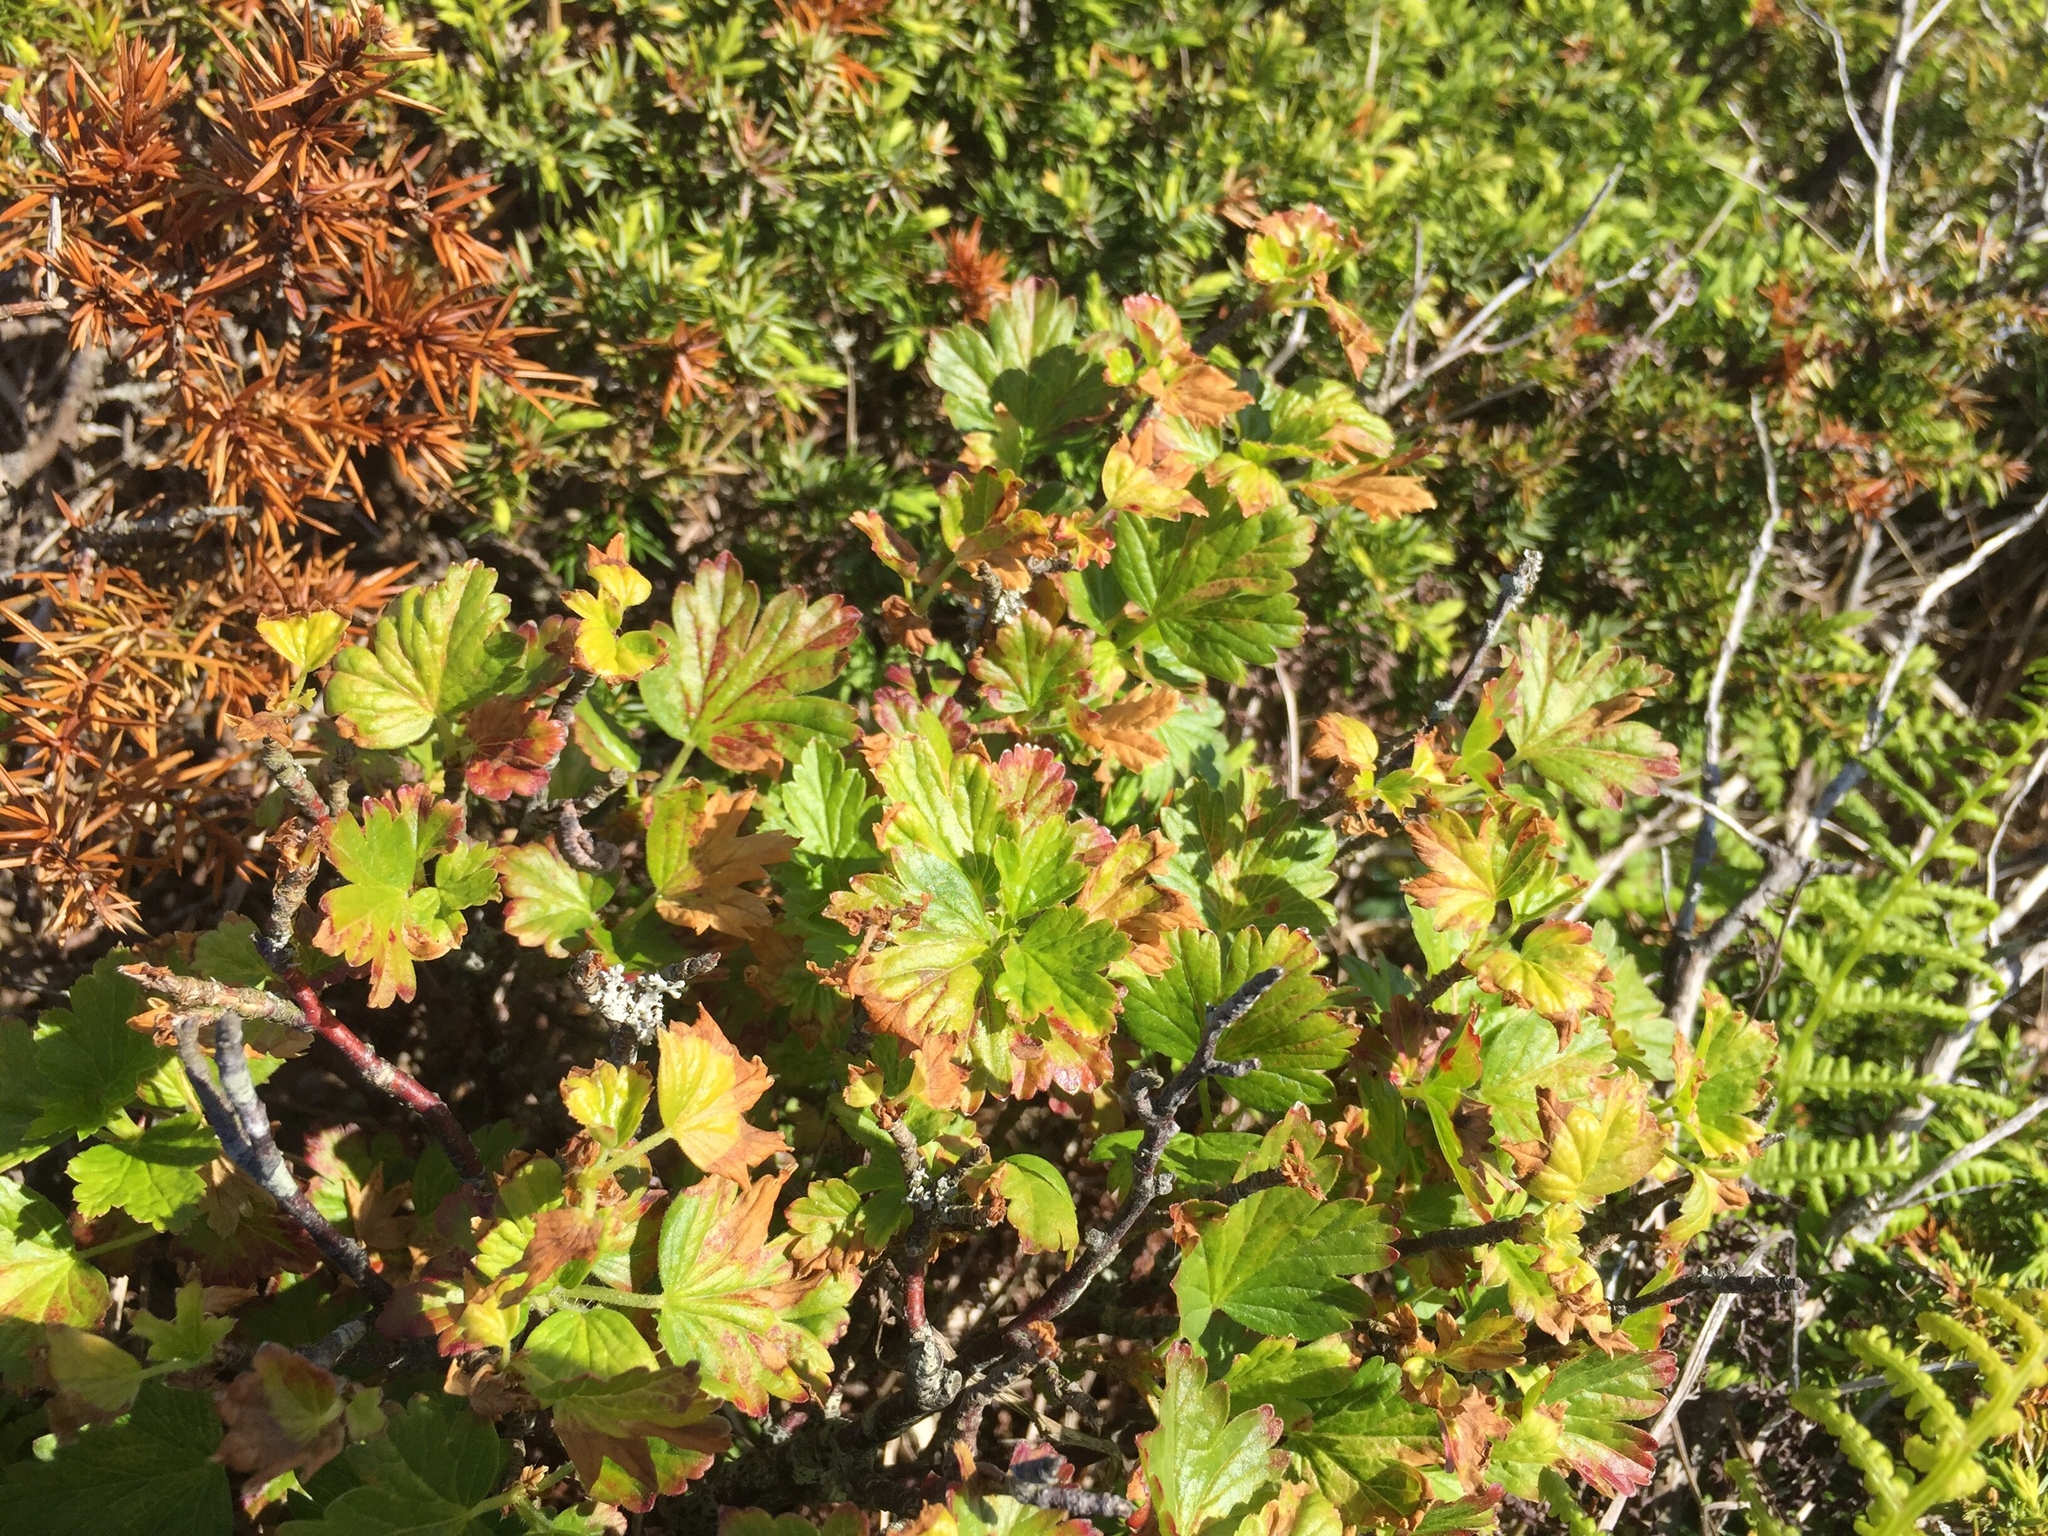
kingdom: Plantae
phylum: Tracheophyta
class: Magnoliopsida
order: Saxifragales
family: Grossulariaceae
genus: Ribes
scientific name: Ribes uva-crispa
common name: Gooseberry
